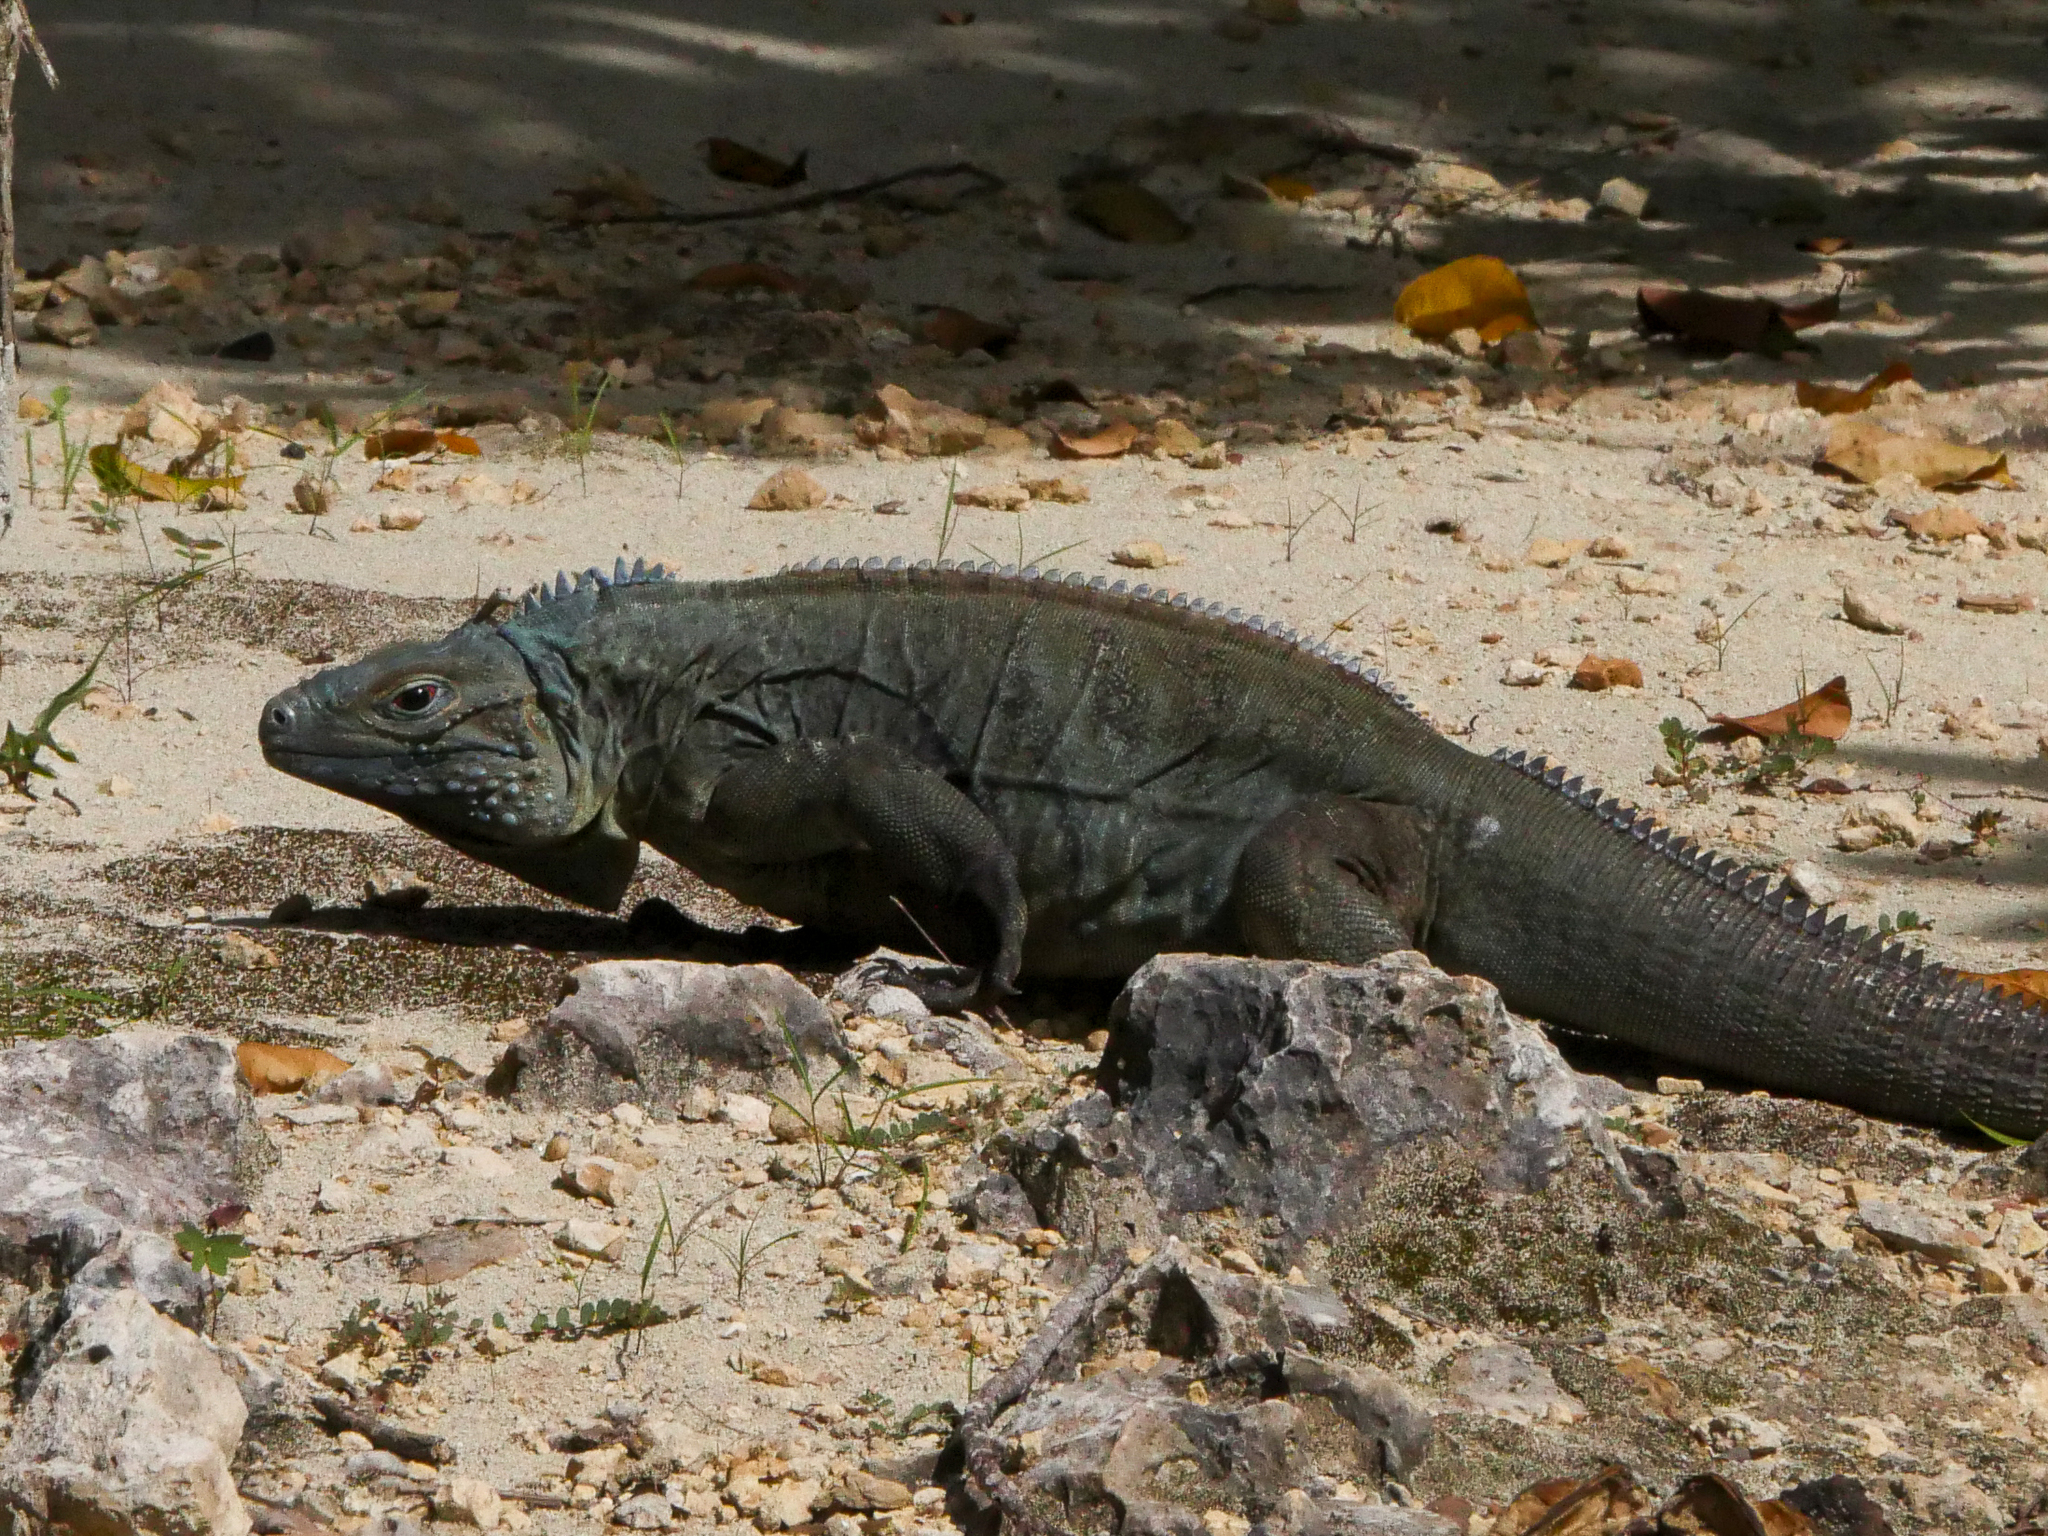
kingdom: Animalia
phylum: Chordata
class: Squamata
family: Iguanidae
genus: Cyclura
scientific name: Cyclura lewisi
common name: Grand cayman blue iguana
